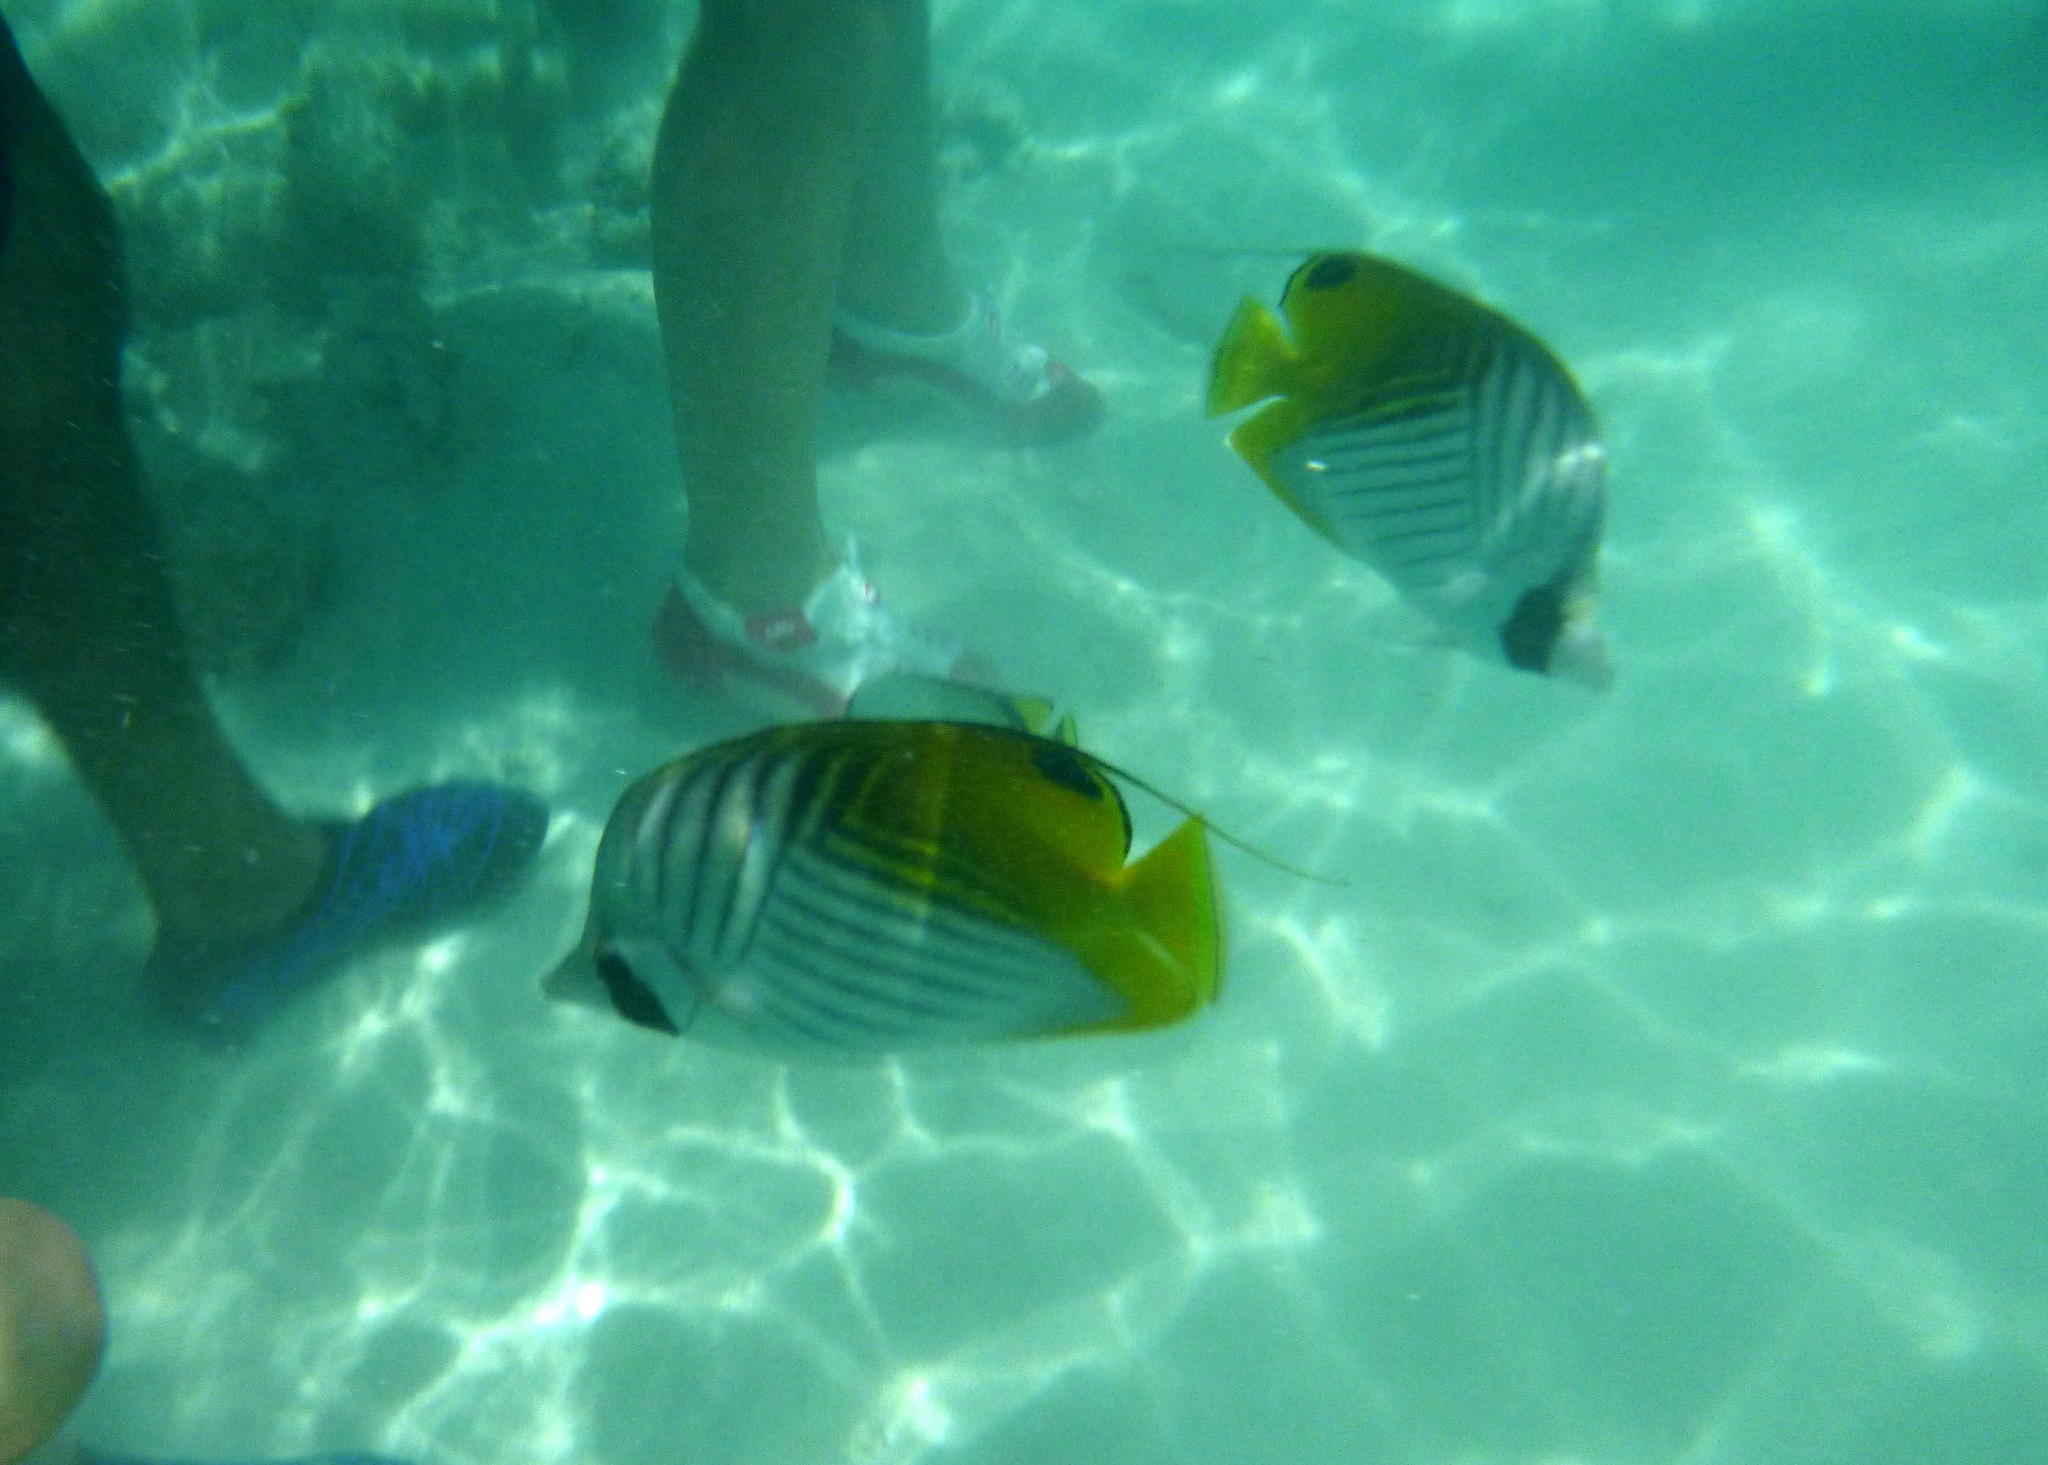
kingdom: Animalia
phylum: Chordata
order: Perciformes
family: Chaetodontidae
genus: Chaetodon
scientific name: Chaetodon auriga
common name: Threadfin butterflyfish
